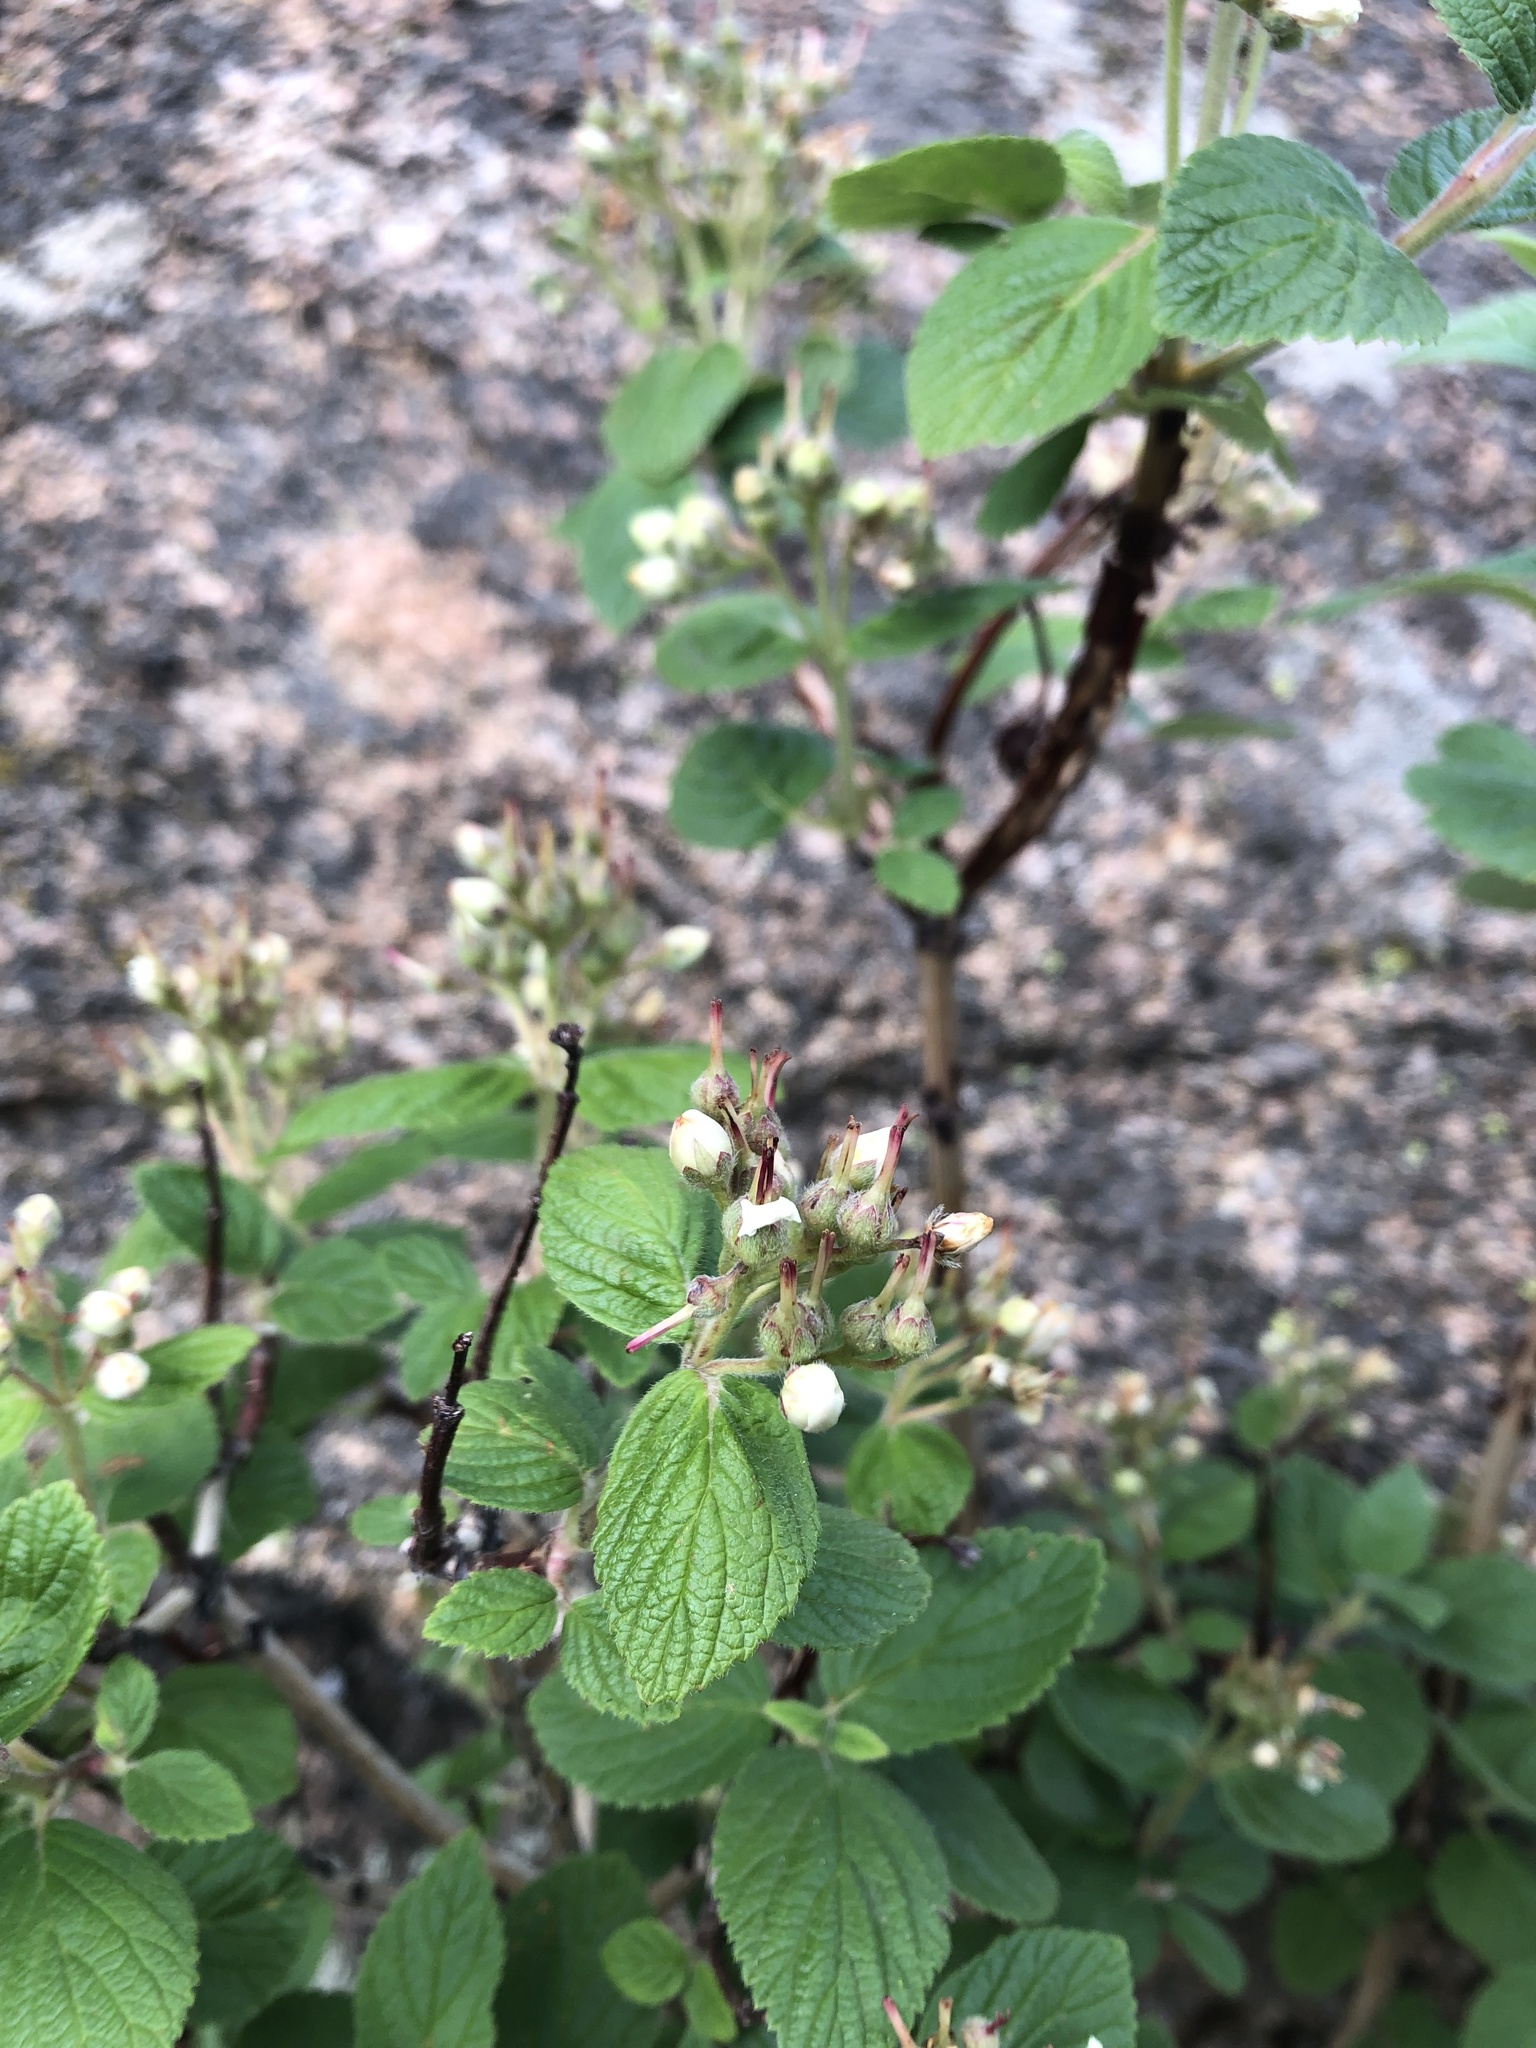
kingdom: Plantae
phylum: Tracheophyta
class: Magnoliopsida
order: Cornales
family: Hydrangeaceae
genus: Jamesia
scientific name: Jamesia americana
